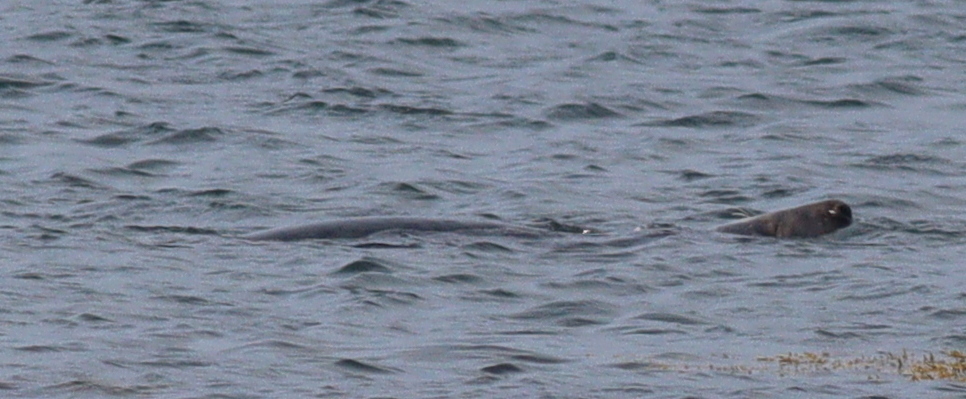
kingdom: Animalia
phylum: Chordata
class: Mammalia
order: Carnivora
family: Phocidae
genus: Halichoerus
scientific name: Halichoerus grypus
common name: Grey seal
